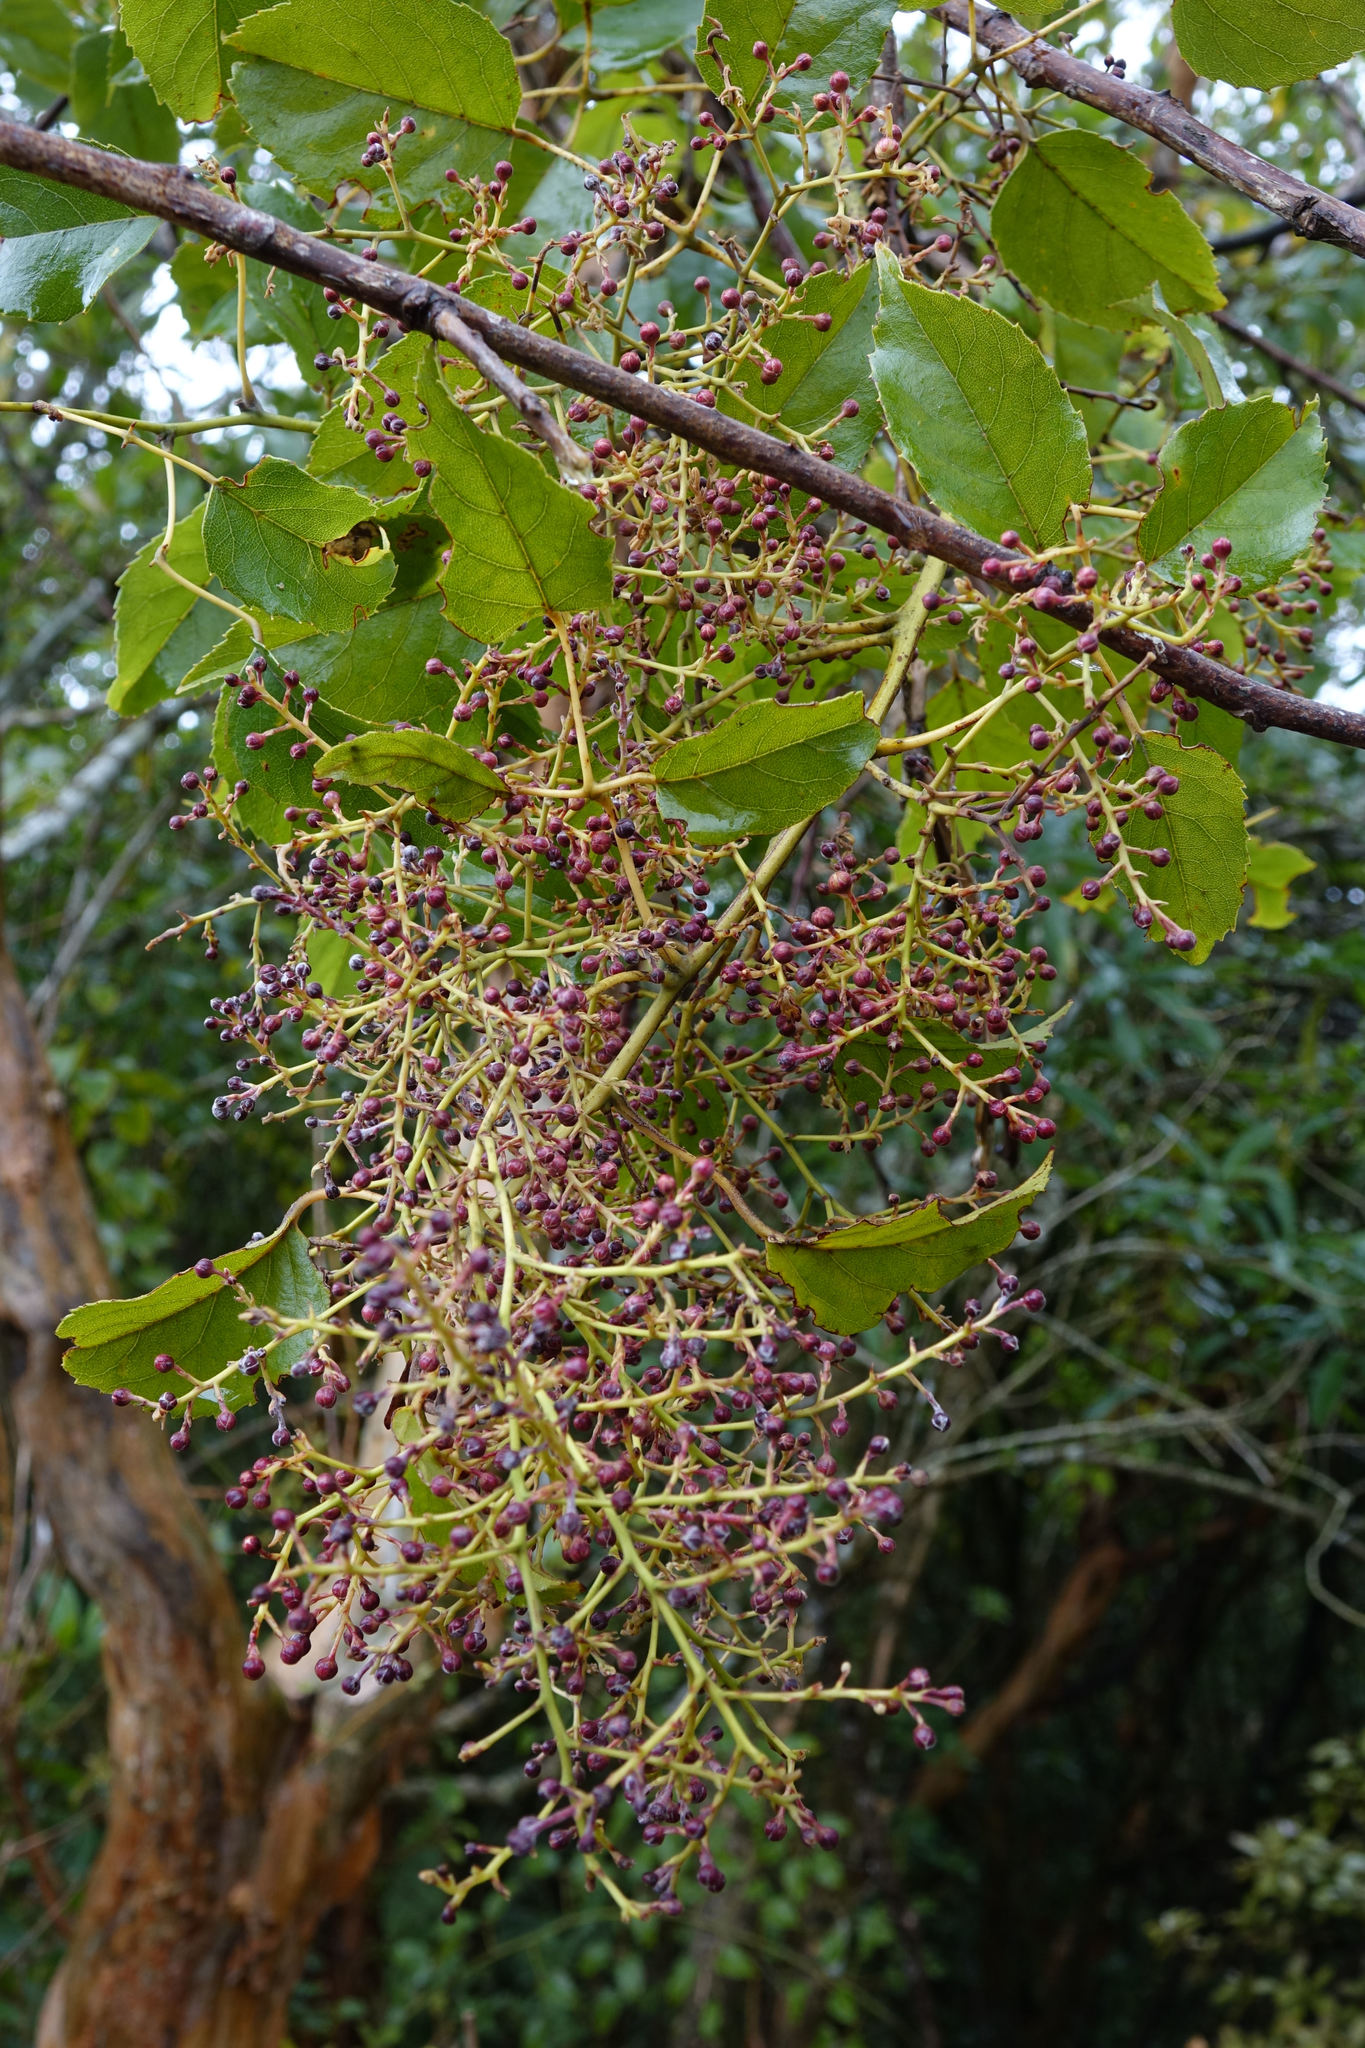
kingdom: Plantae
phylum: Tracheophyta
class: Magnoliopsida
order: Rosales
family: Rosaceae
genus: Rubus
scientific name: Rubus cissoides
